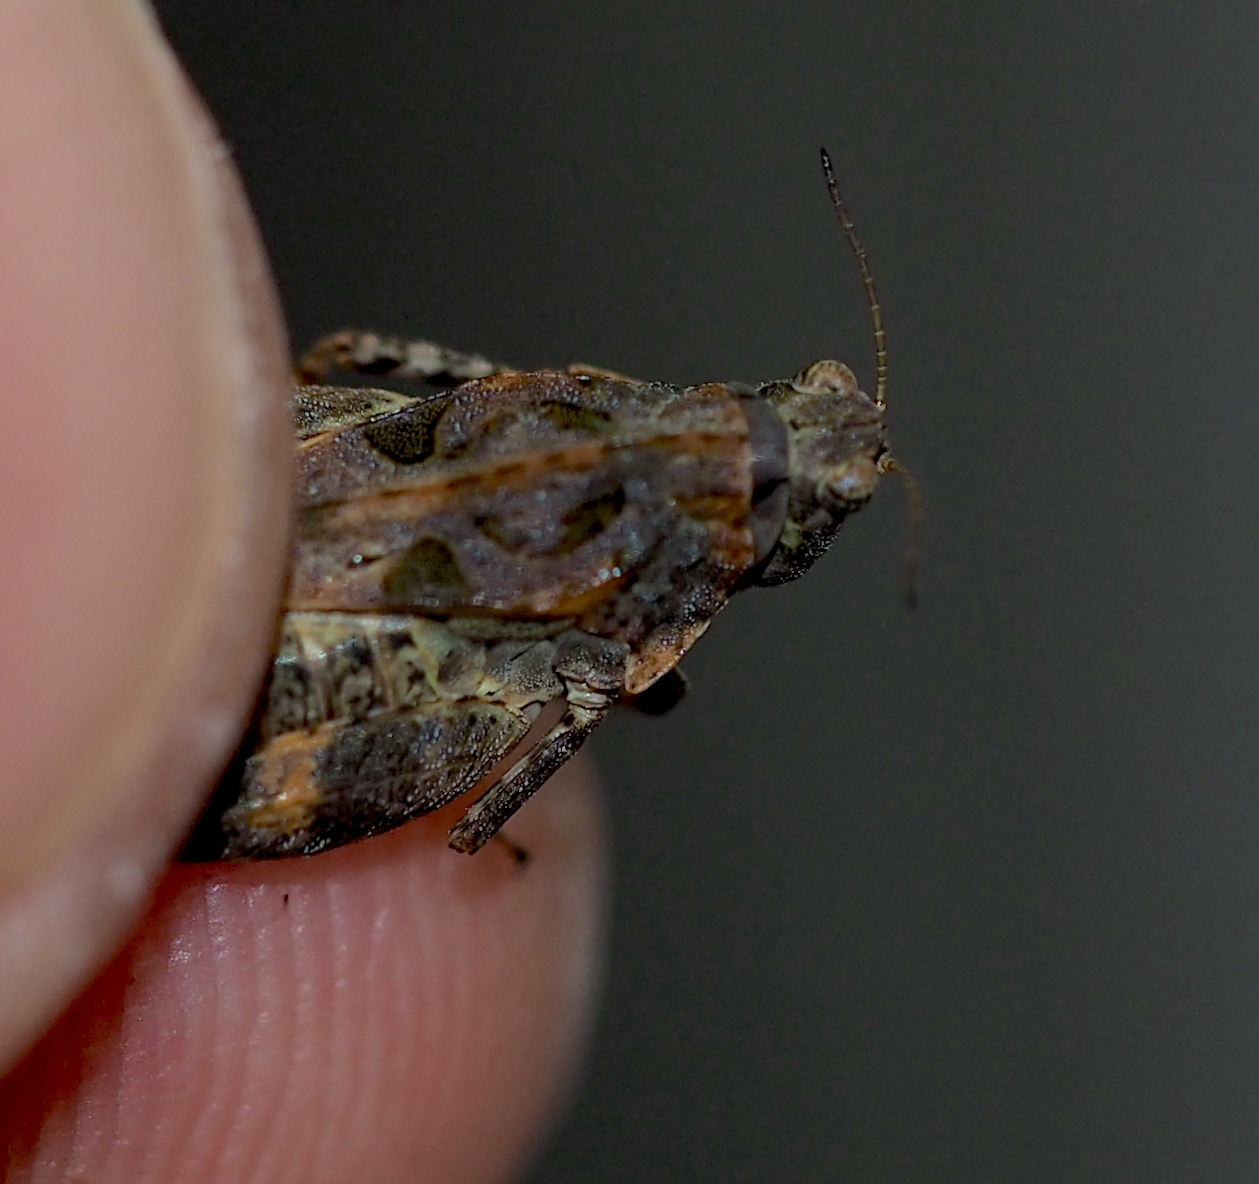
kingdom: Animalia
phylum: Arthropoda
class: Insecta
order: Orthoptera
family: Tetrigidae
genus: Tetrix
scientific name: Tetrix tenuicornis
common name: Long-horned groundhopper
